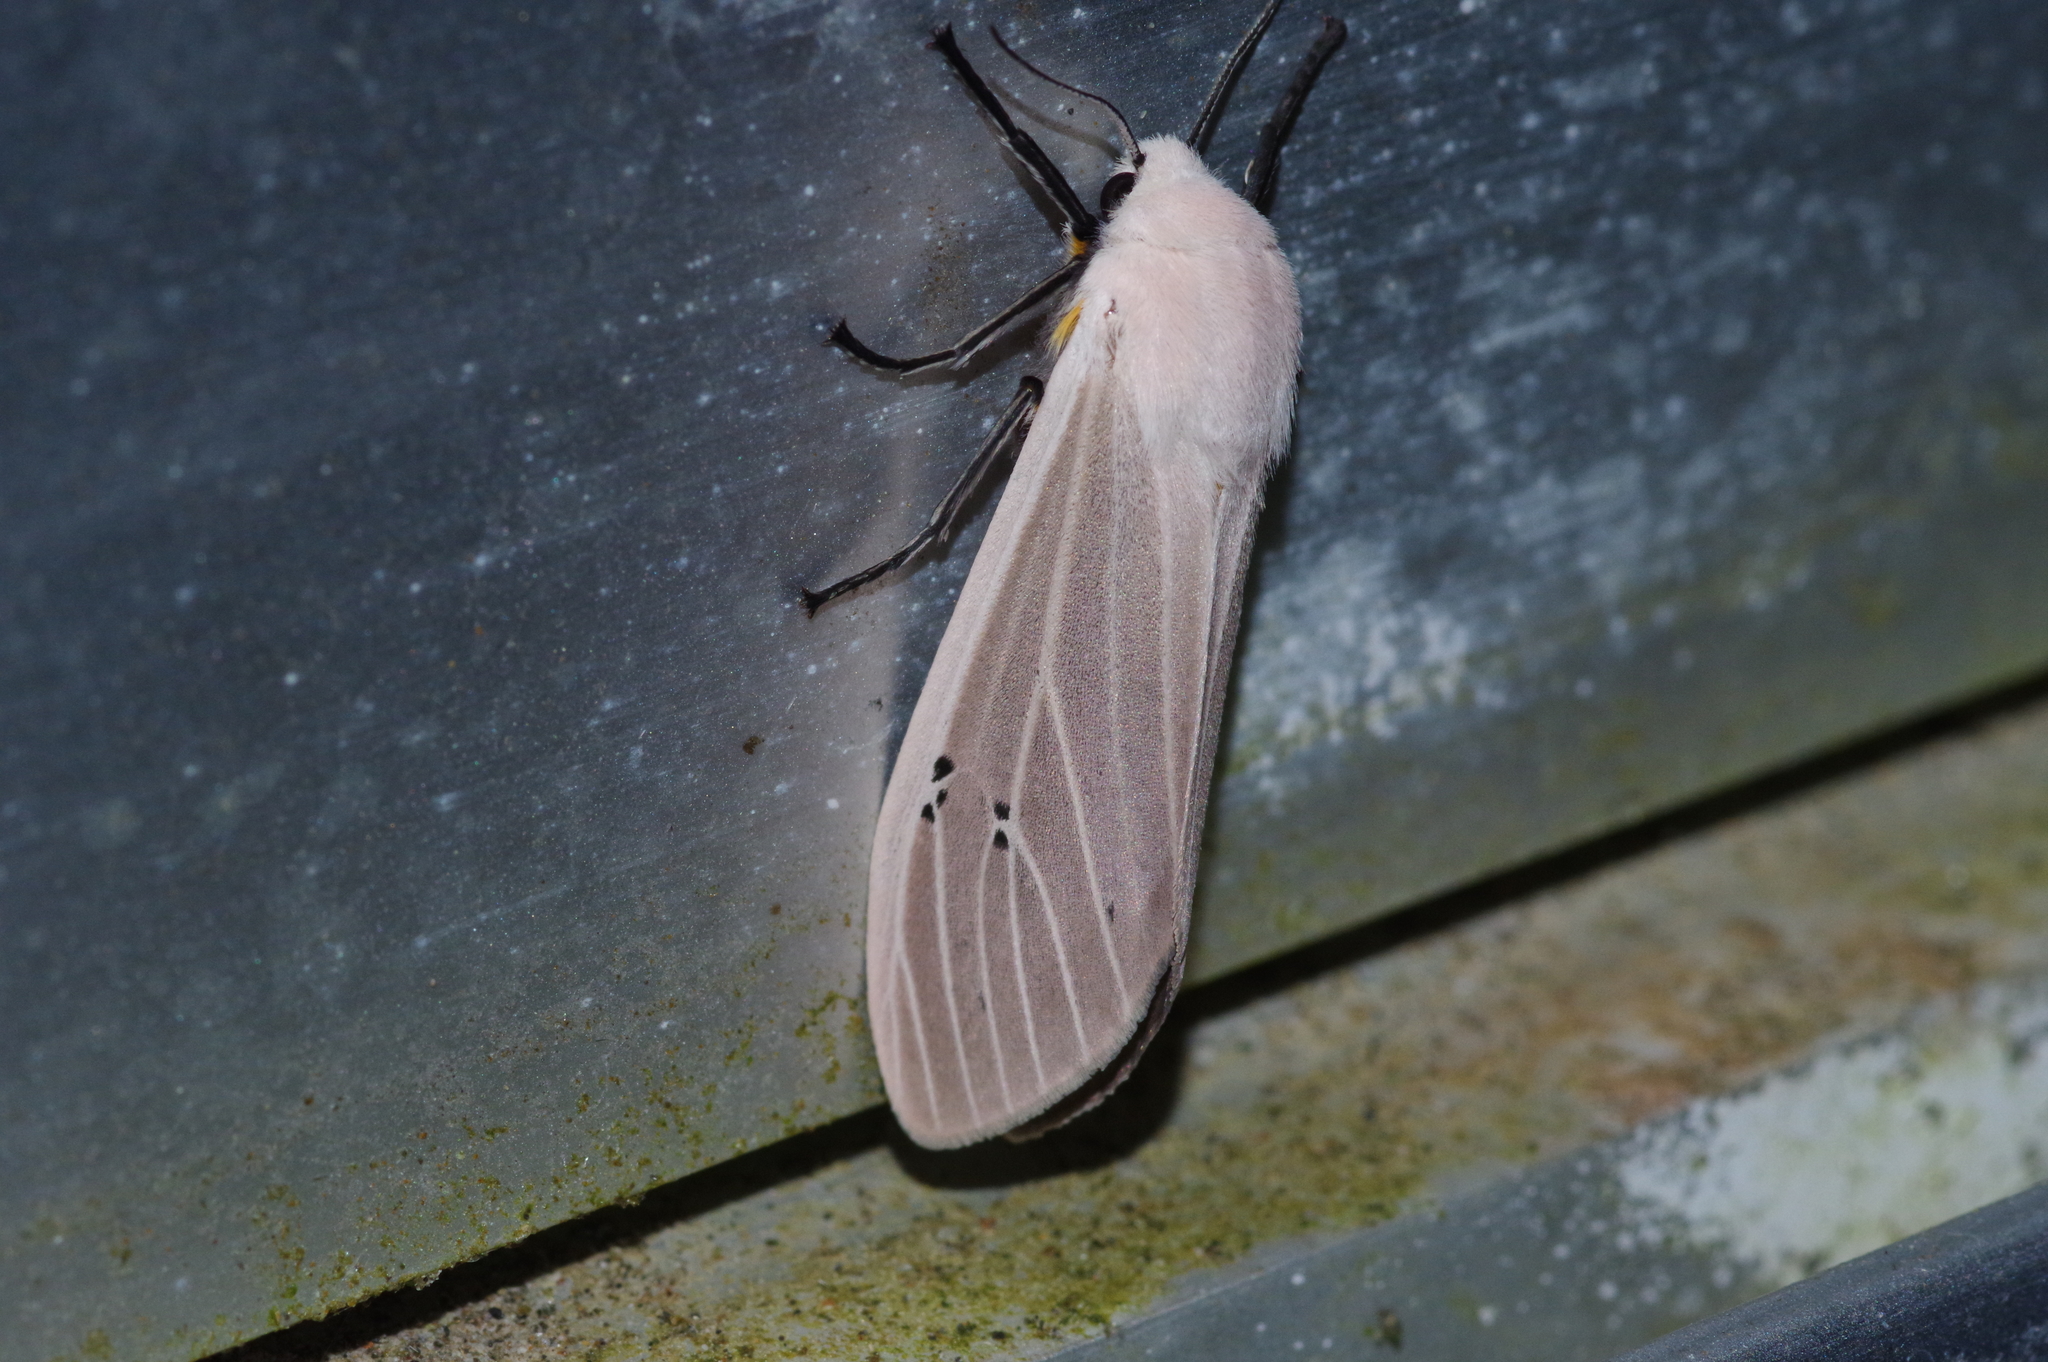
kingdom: Animalia
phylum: Arthropoda
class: Insecta
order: Lepidoptera
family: Erebidae
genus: Creatonotos
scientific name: Creatonotos transiens
